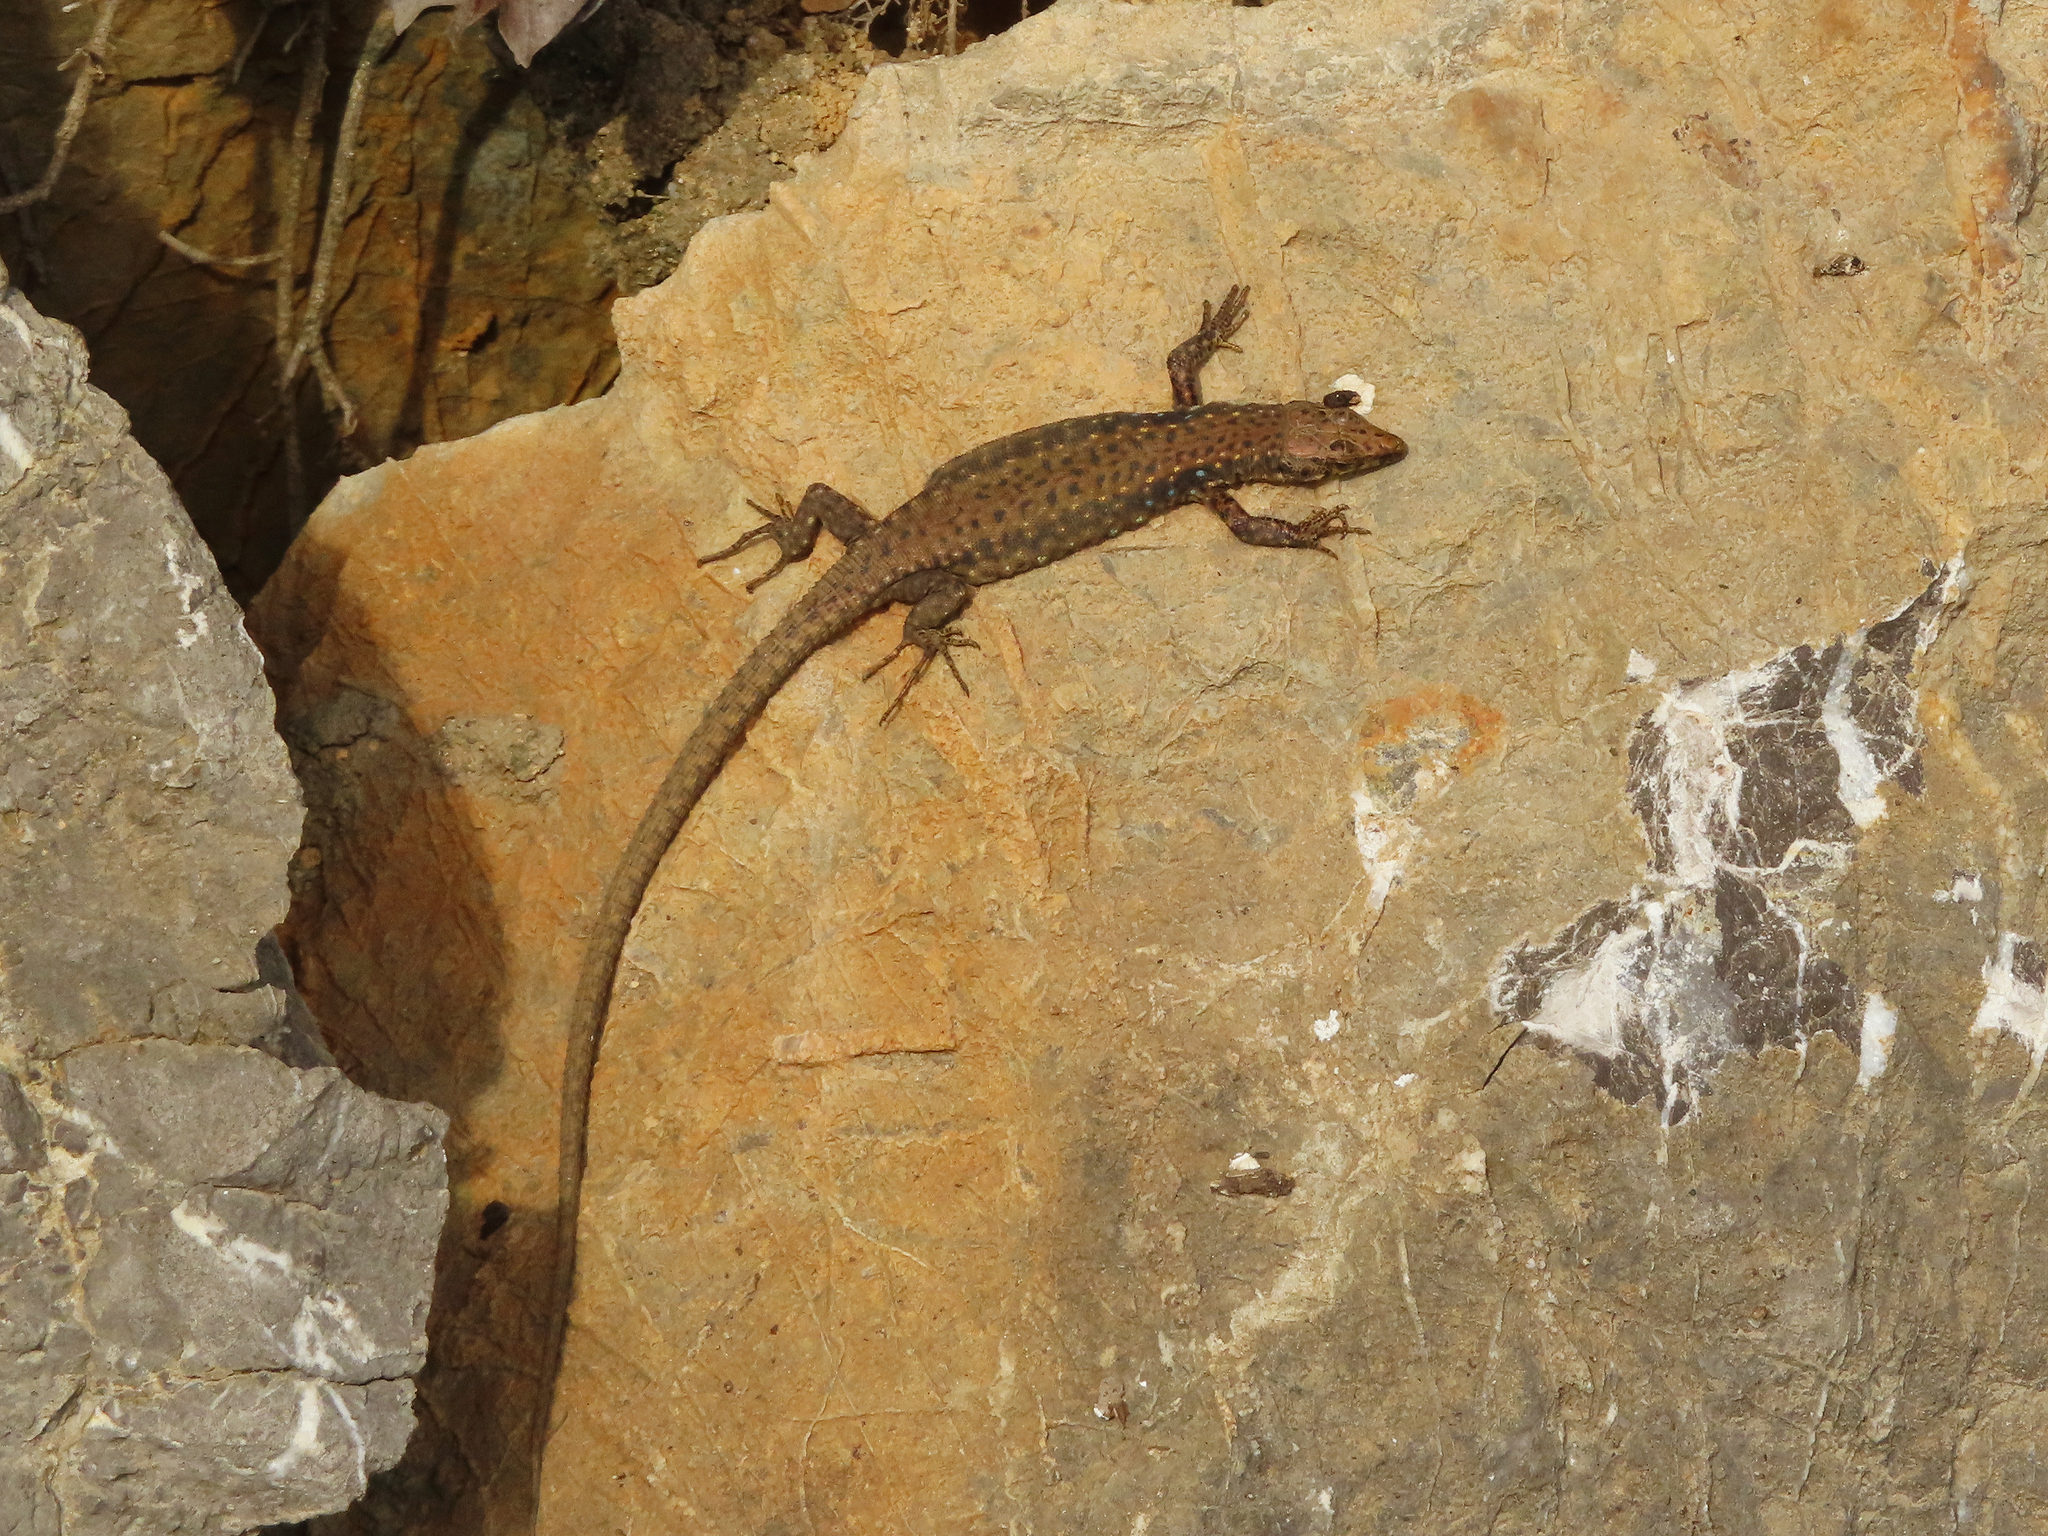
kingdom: Animalia
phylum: Chordata
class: Squamata
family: Lacertidae
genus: Darevskia
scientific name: Darevskia bithynica
